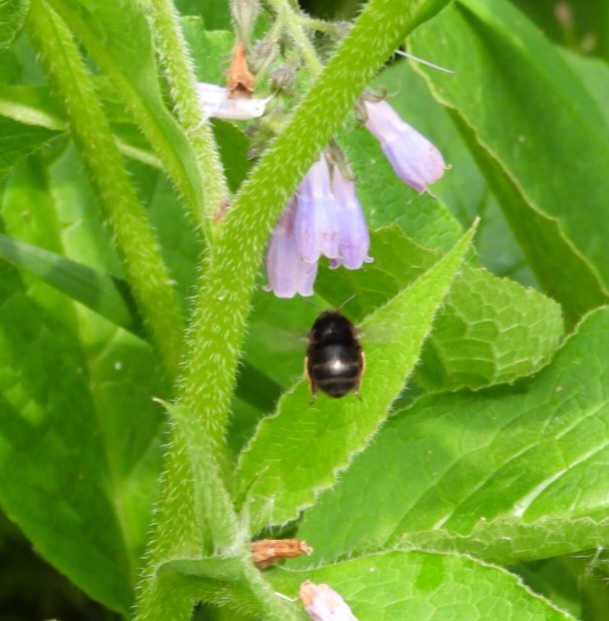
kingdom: Animalia
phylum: Arthropoda
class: Insecta
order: Hymenoptera
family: Apidae
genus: Anthophora
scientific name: Anthophora plumipes
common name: Hairy-footed flower bee
